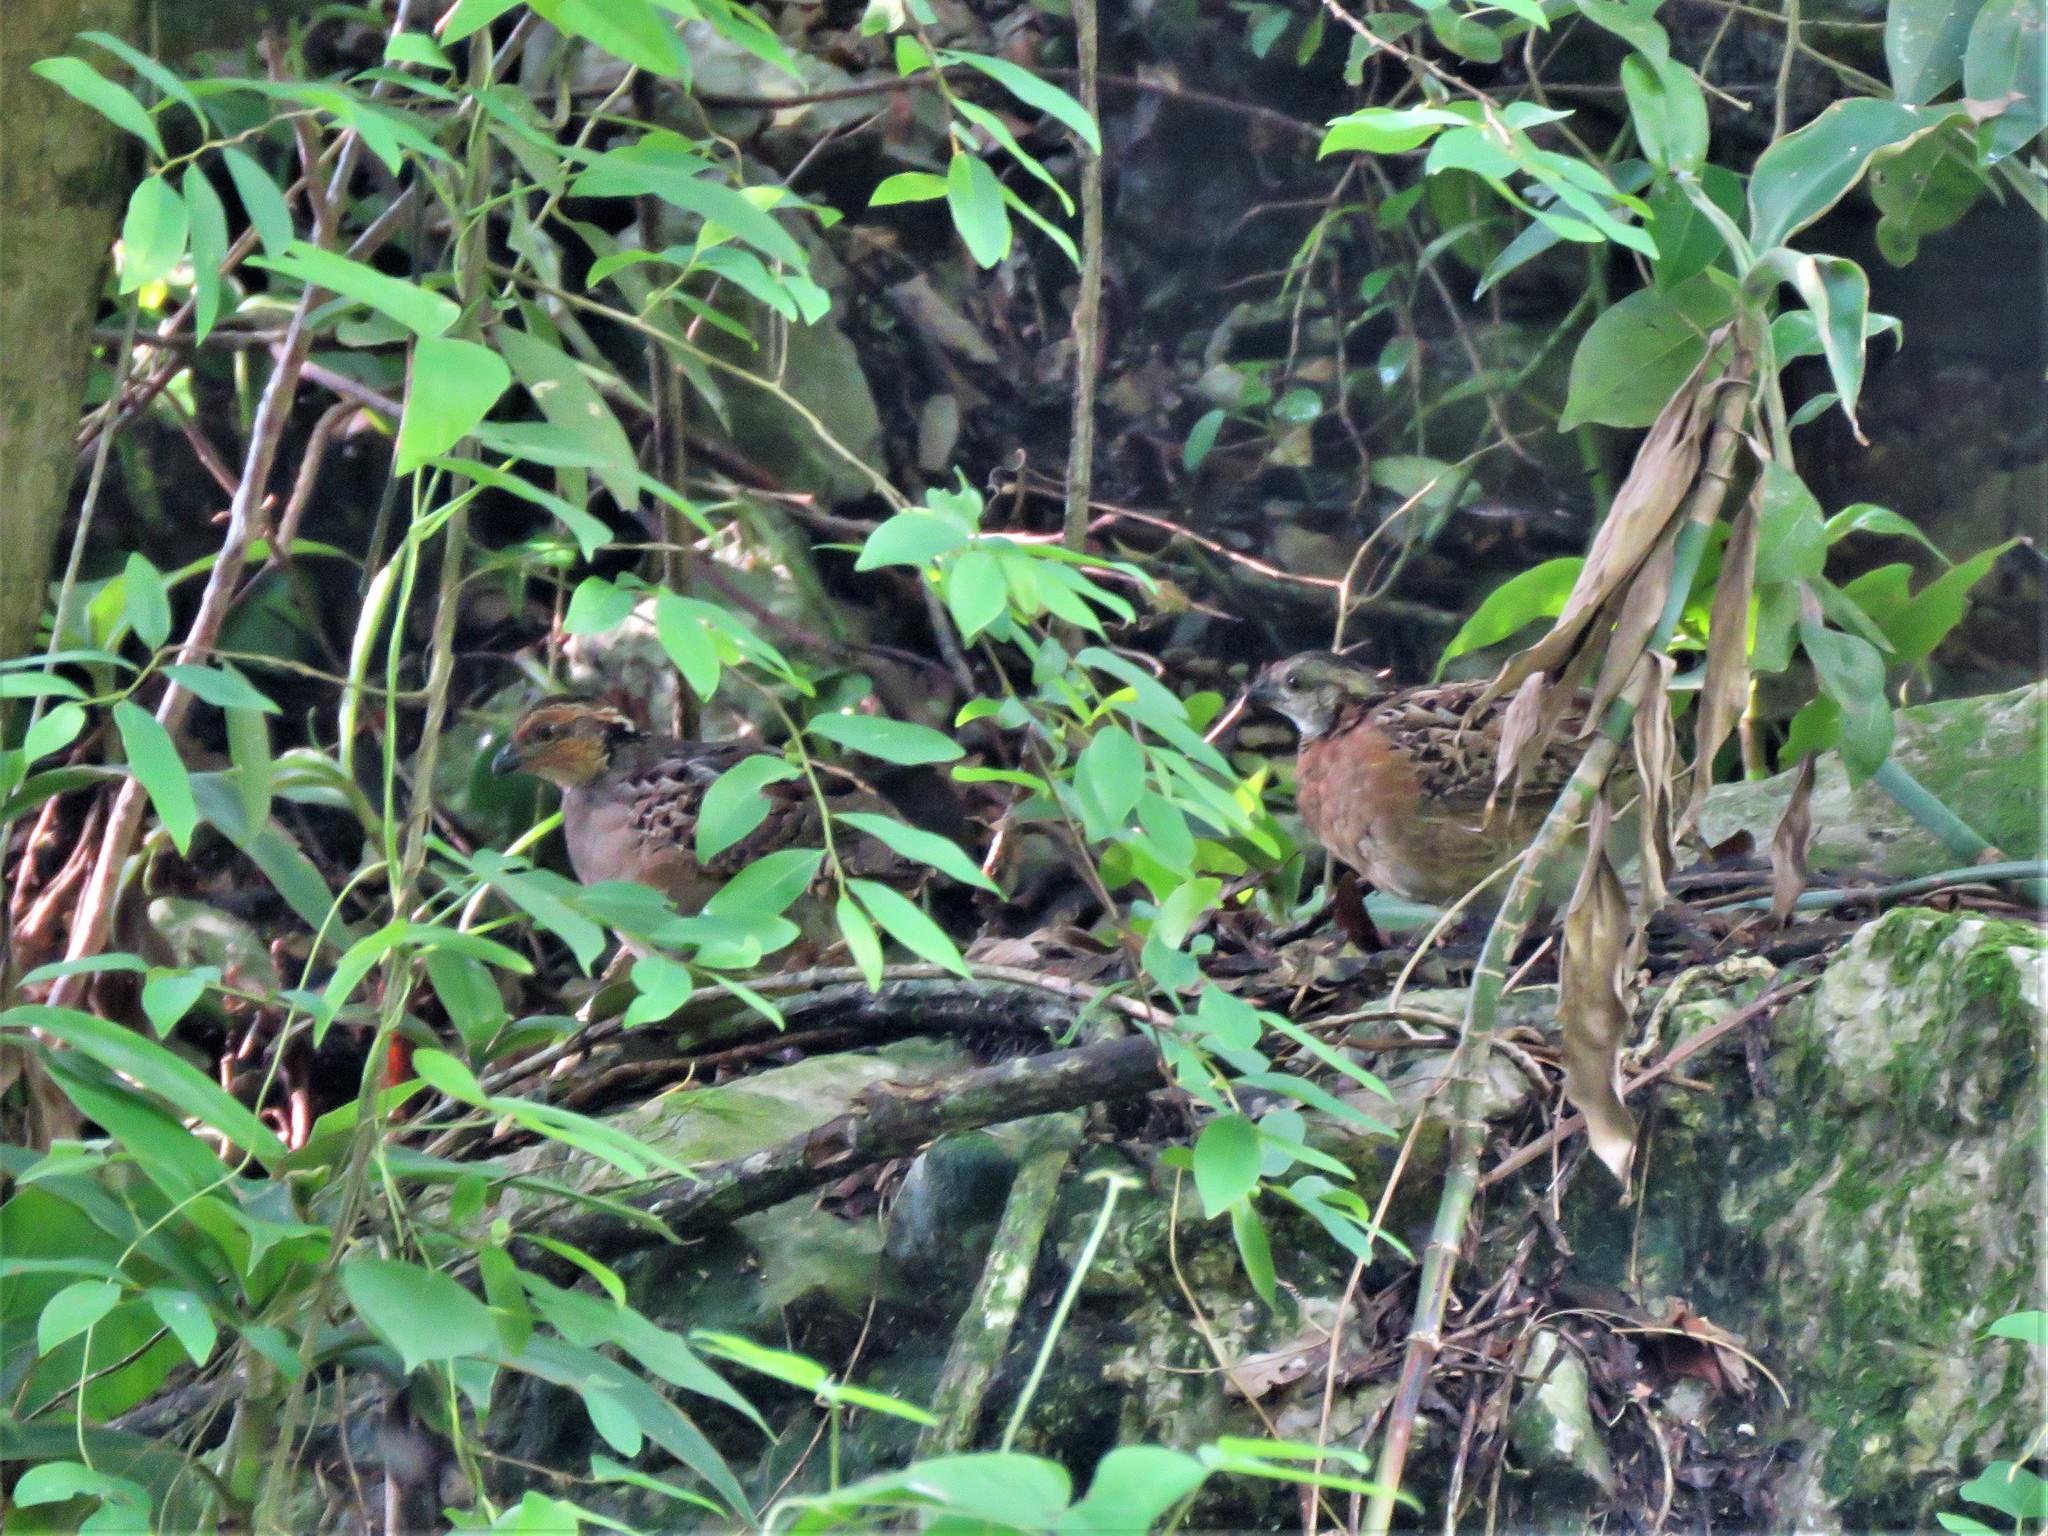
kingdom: Animalia
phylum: Chordata
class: Aves
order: Galliformes
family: Odontophoridae
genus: Dactylortyx
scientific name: Dactylortyx thoracicus
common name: Singing quail
